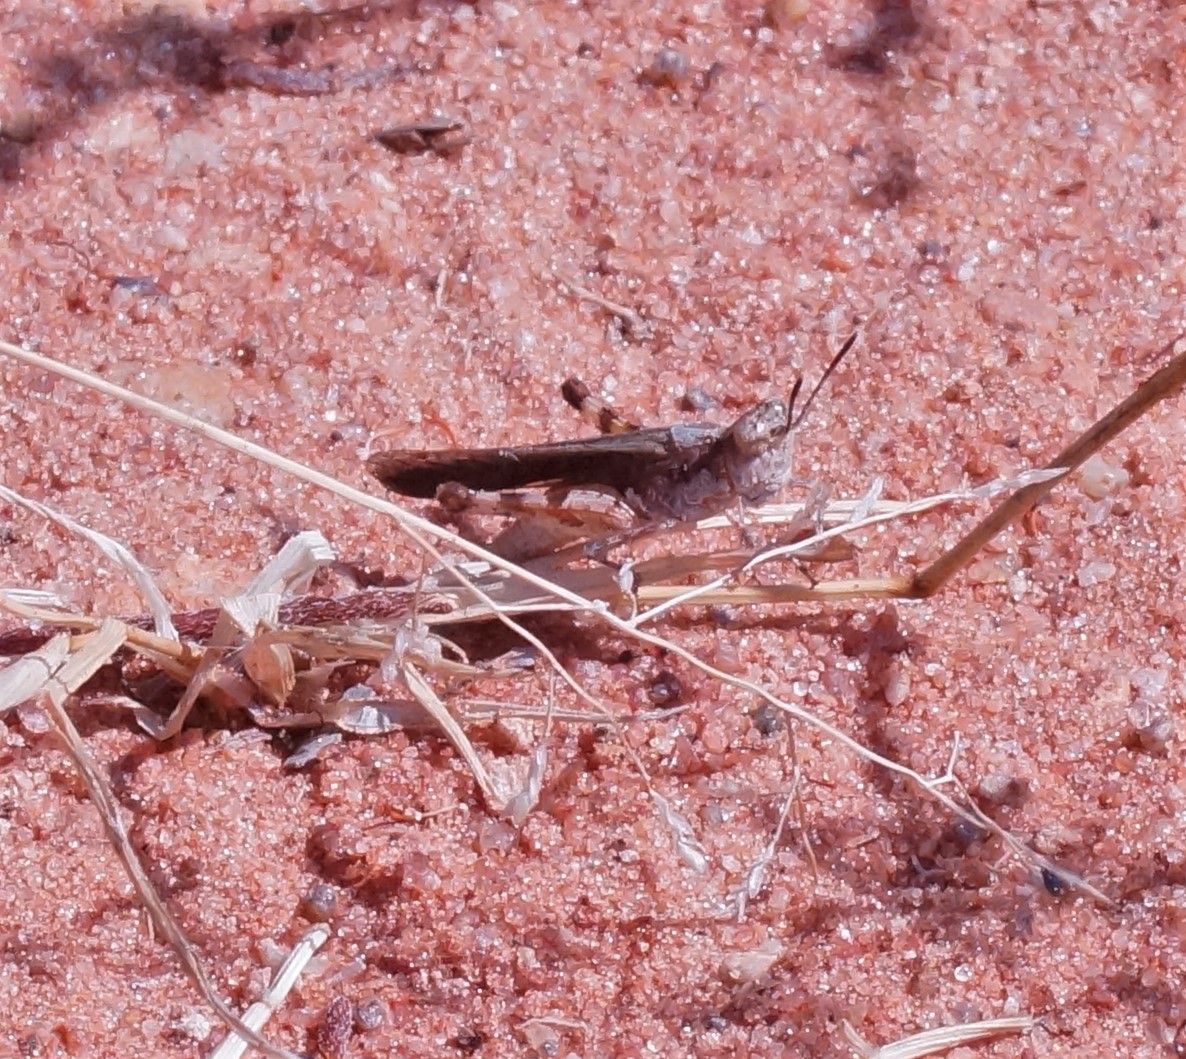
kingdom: Animalia
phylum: Arthropoda
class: Insecta
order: Orthoptera
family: Acrididae
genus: Pycnostictus
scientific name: Pycnostictus seriatus
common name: Common bandwing
